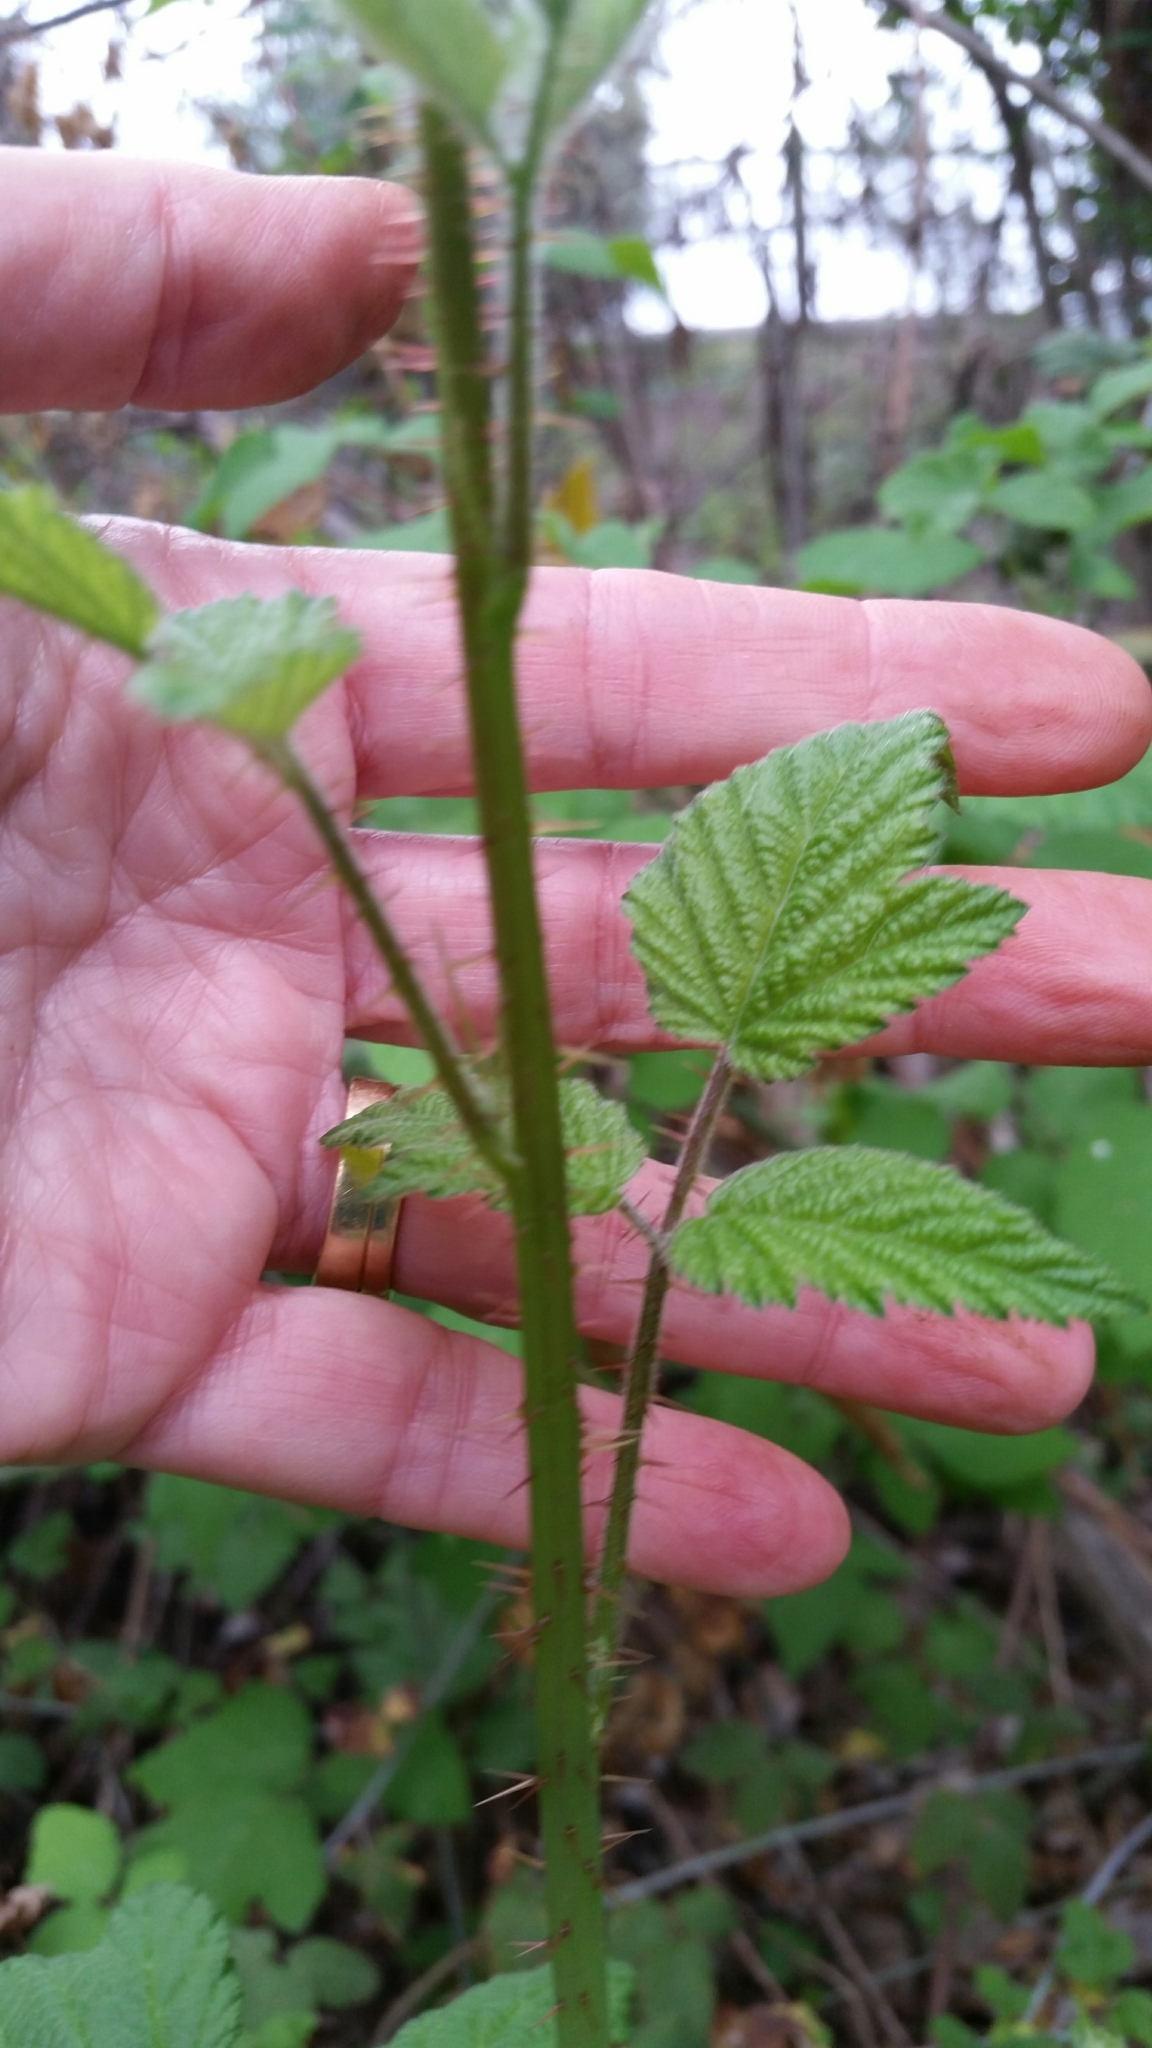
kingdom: Plantae
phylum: Tracheophyta
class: Magnoliopsida
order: Rosales
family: Rosaceae
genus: Rubus
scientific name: Rubus ursinus
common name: Pacific blackberry
